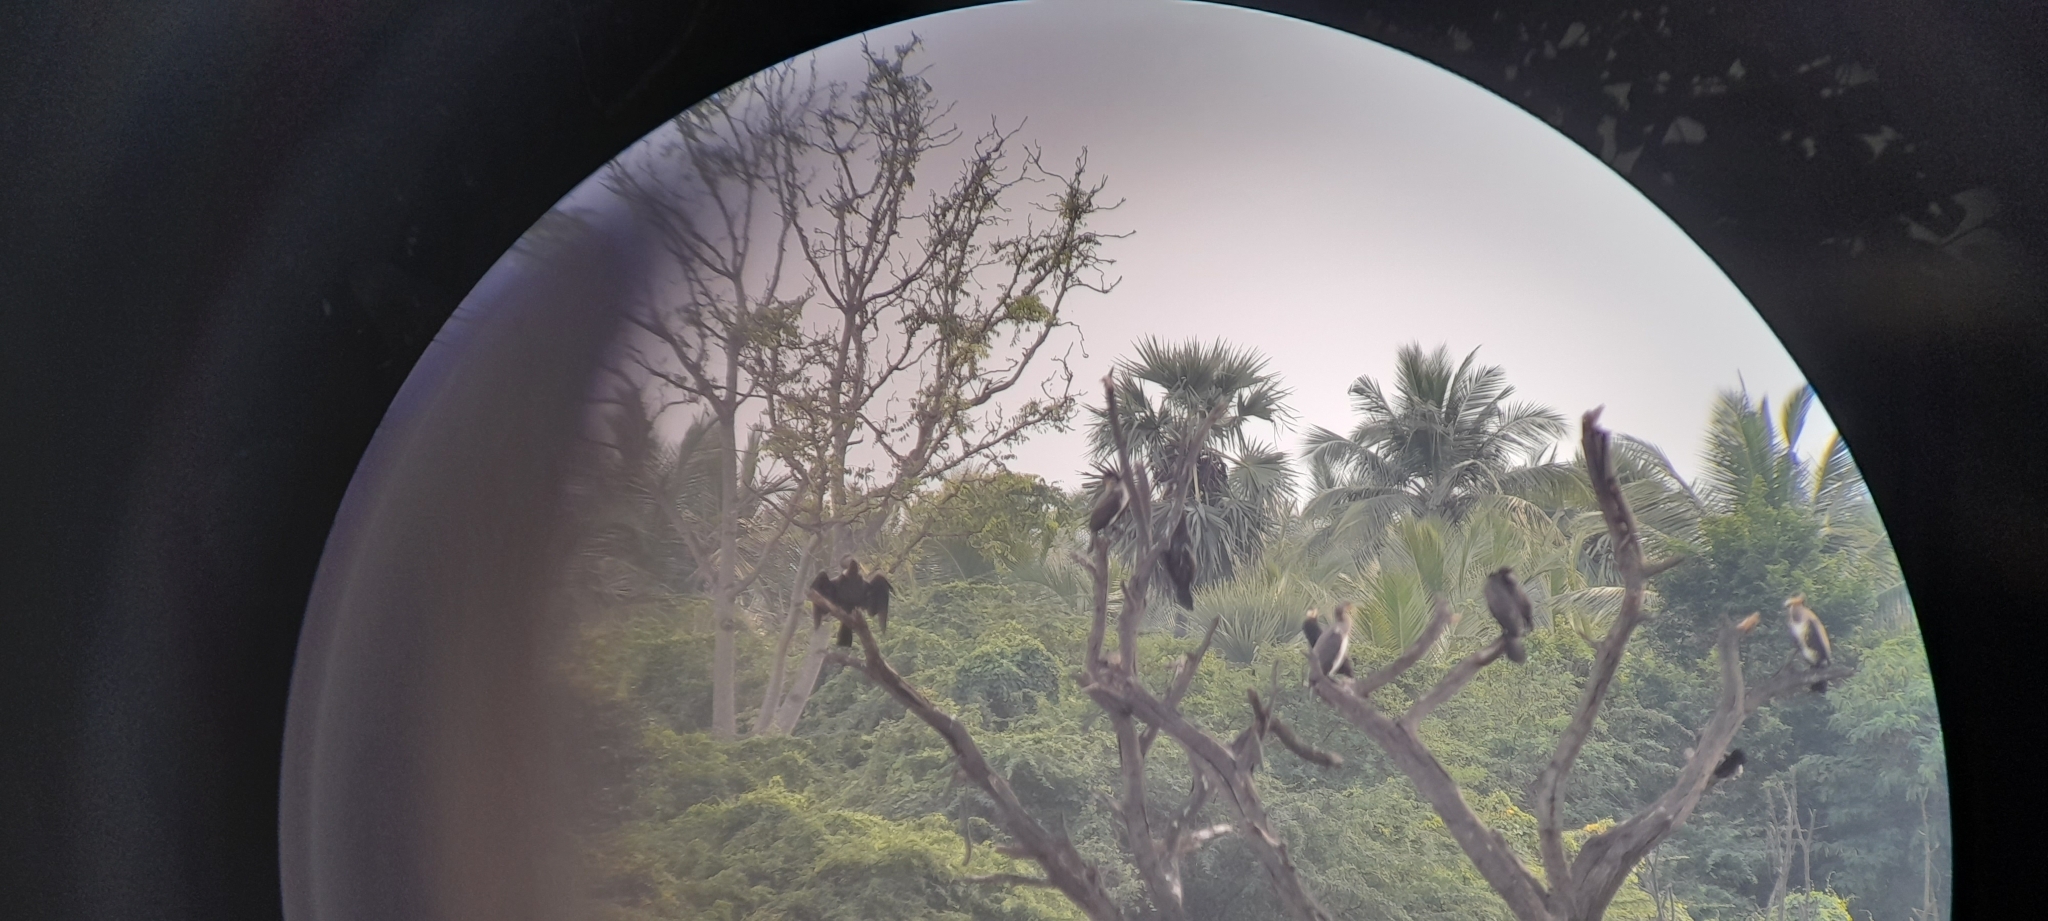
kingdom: Animalia
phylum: Chordata
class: Aves
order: Suliformes
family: Anhingidae
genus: Anhinga
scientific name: Anhinga melanogaster
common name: Oriental darter
